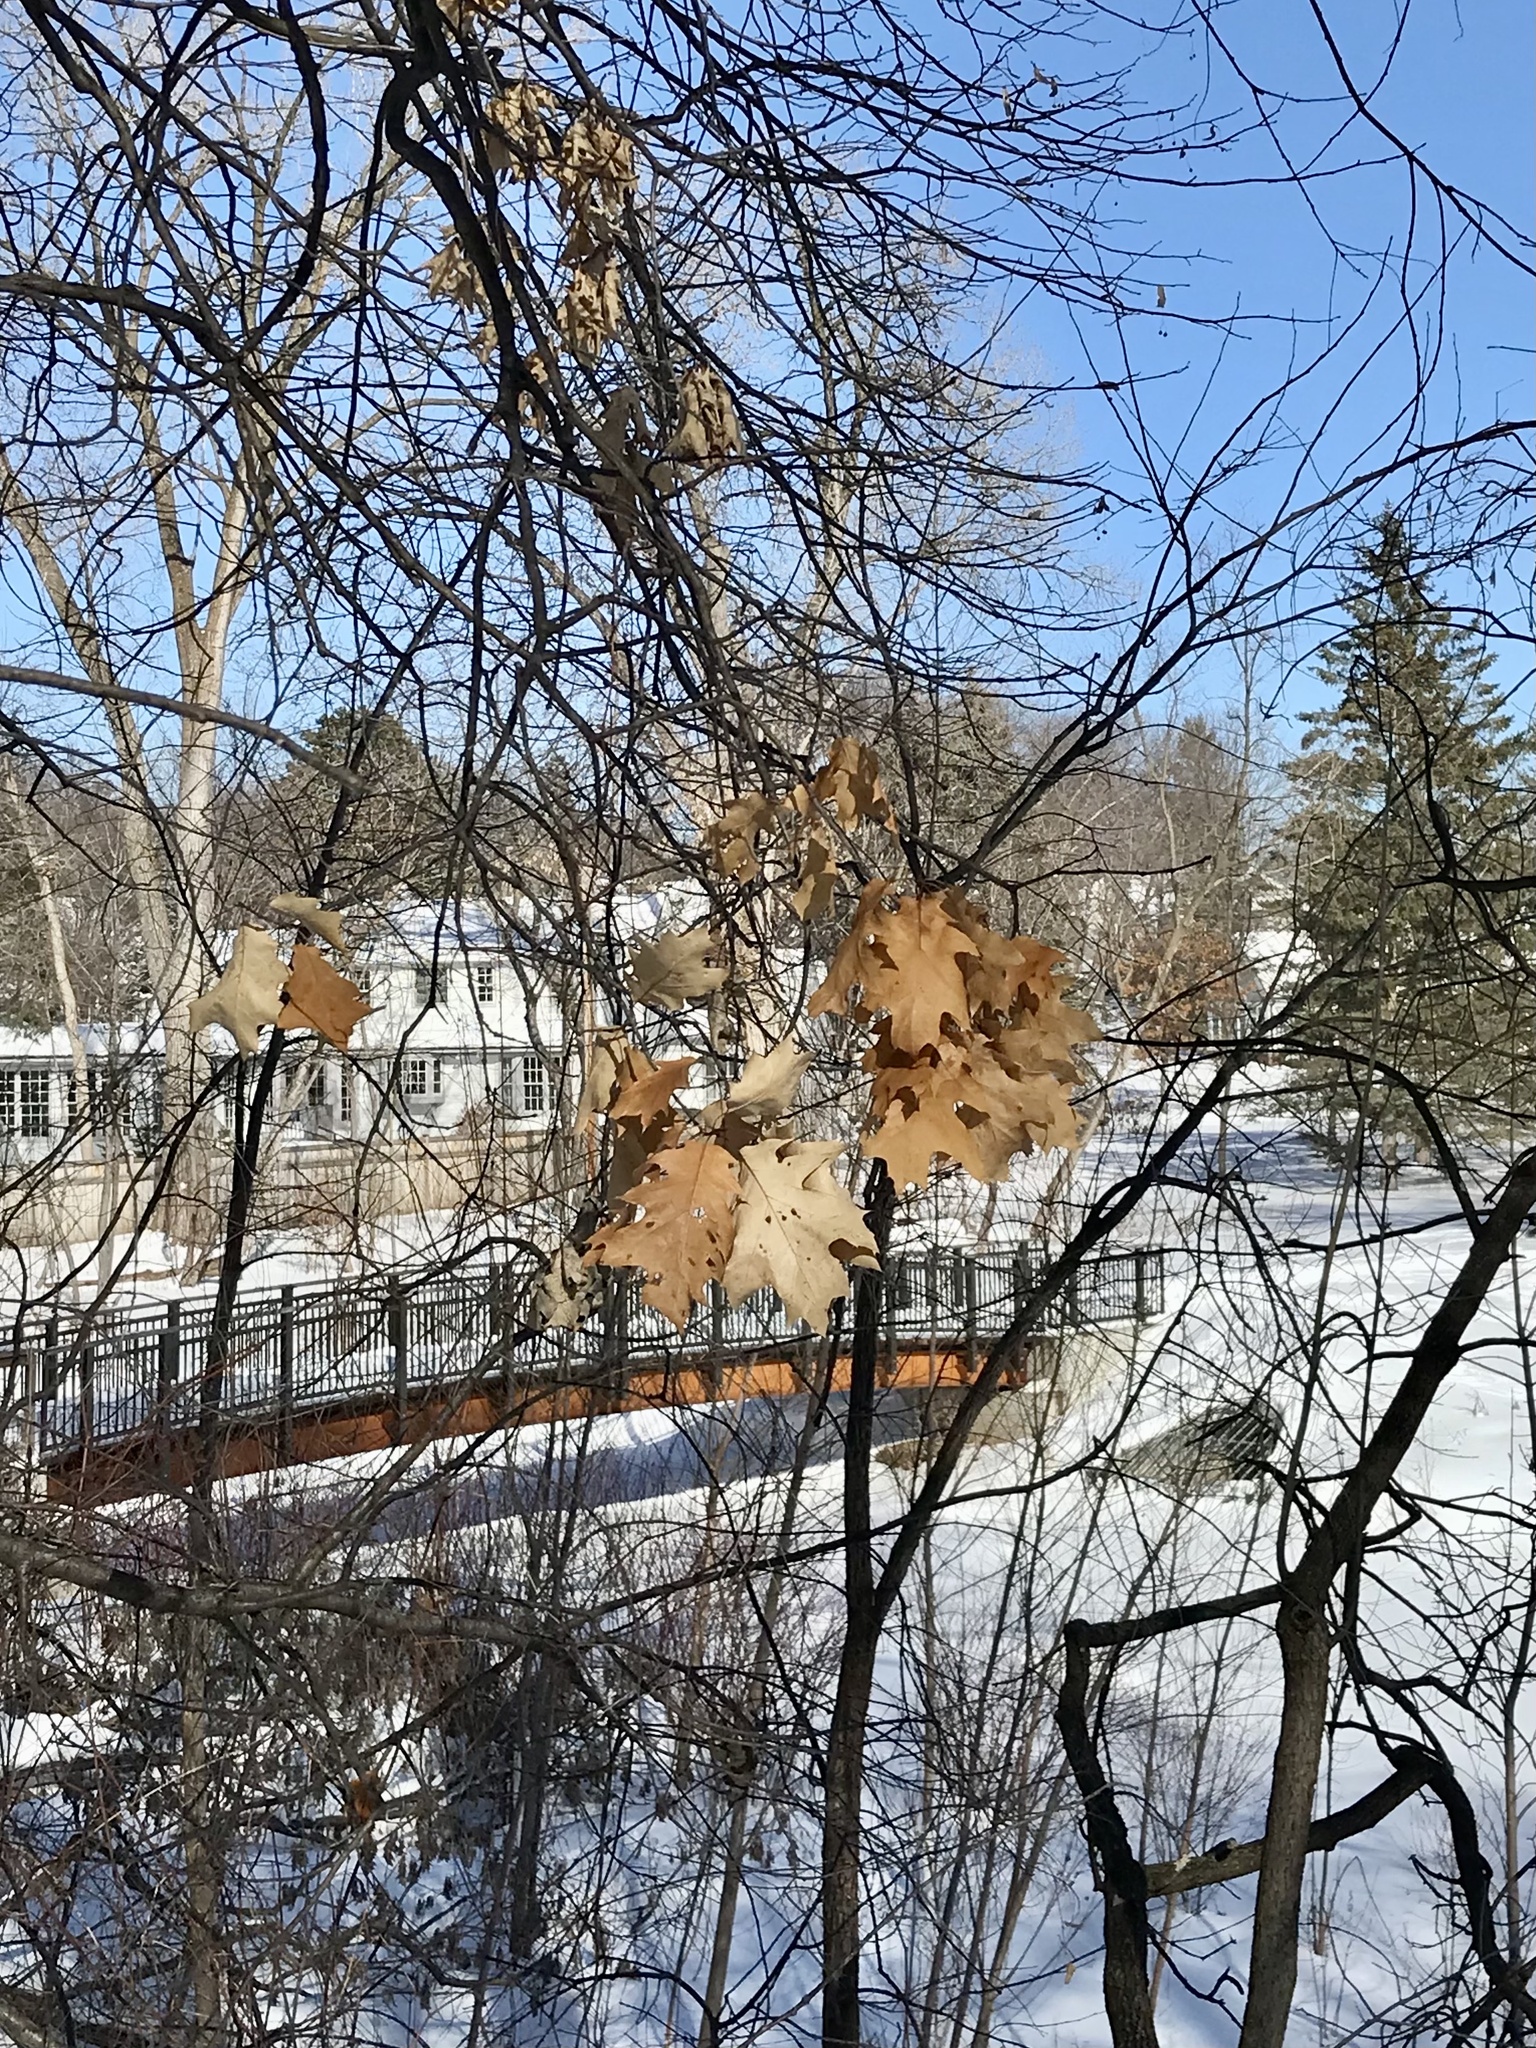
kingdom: Plantae
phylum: Tracheophyta
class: Magnoliopsida
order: Fagales
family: Fagaceae
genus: Quercus
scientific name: Quercus rubra
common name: Red oak
